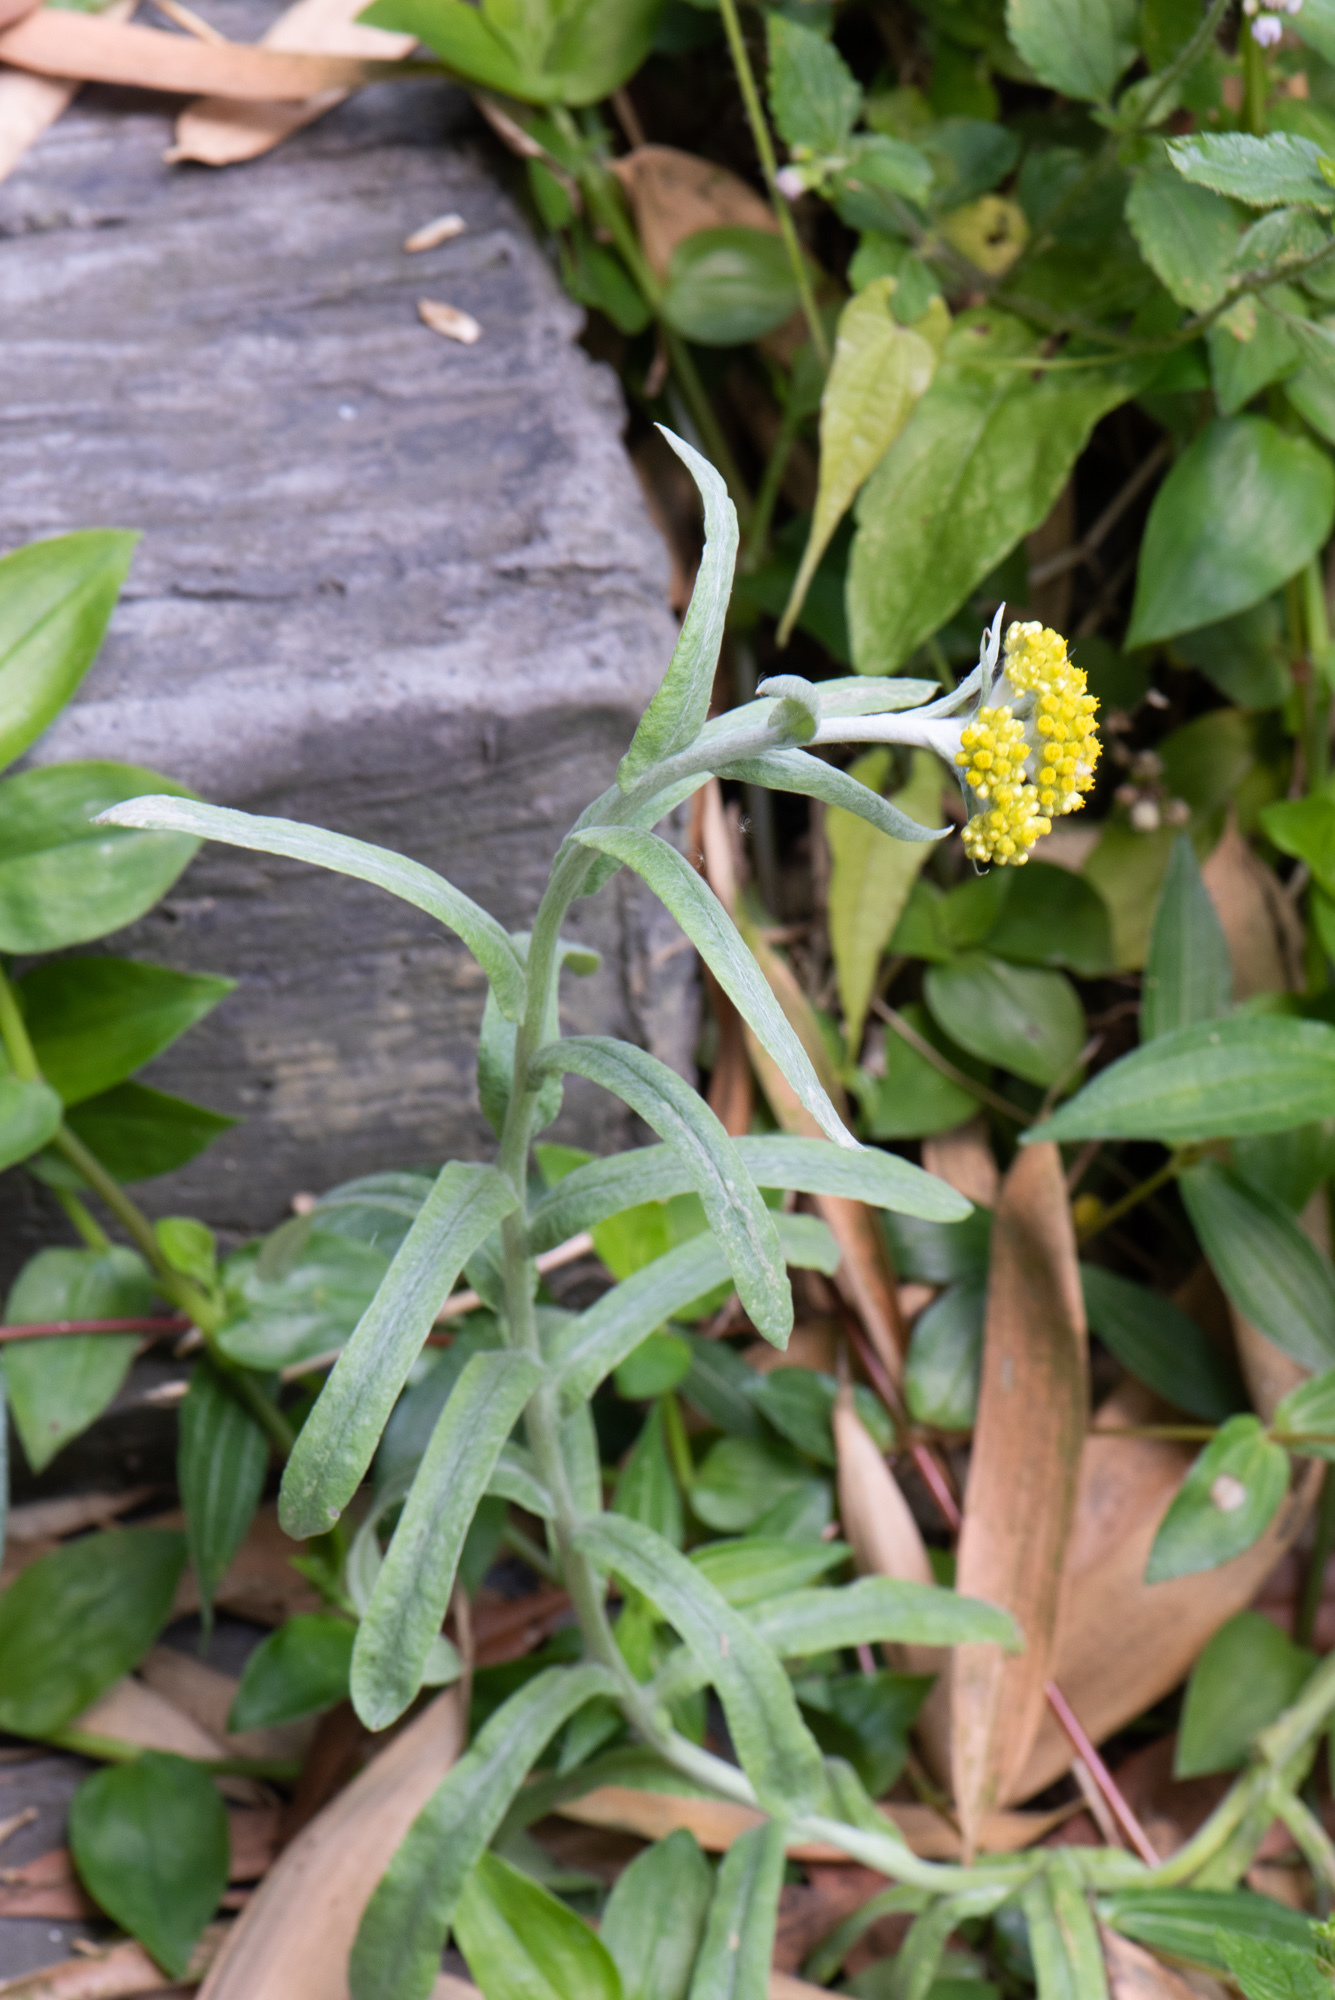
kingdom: Plantae
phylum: Tracheophyta
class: Magnoliopsida
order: Asterales
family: Asteraceae
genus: Pseudognaphalium
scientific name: Pseudognaphalium affine
